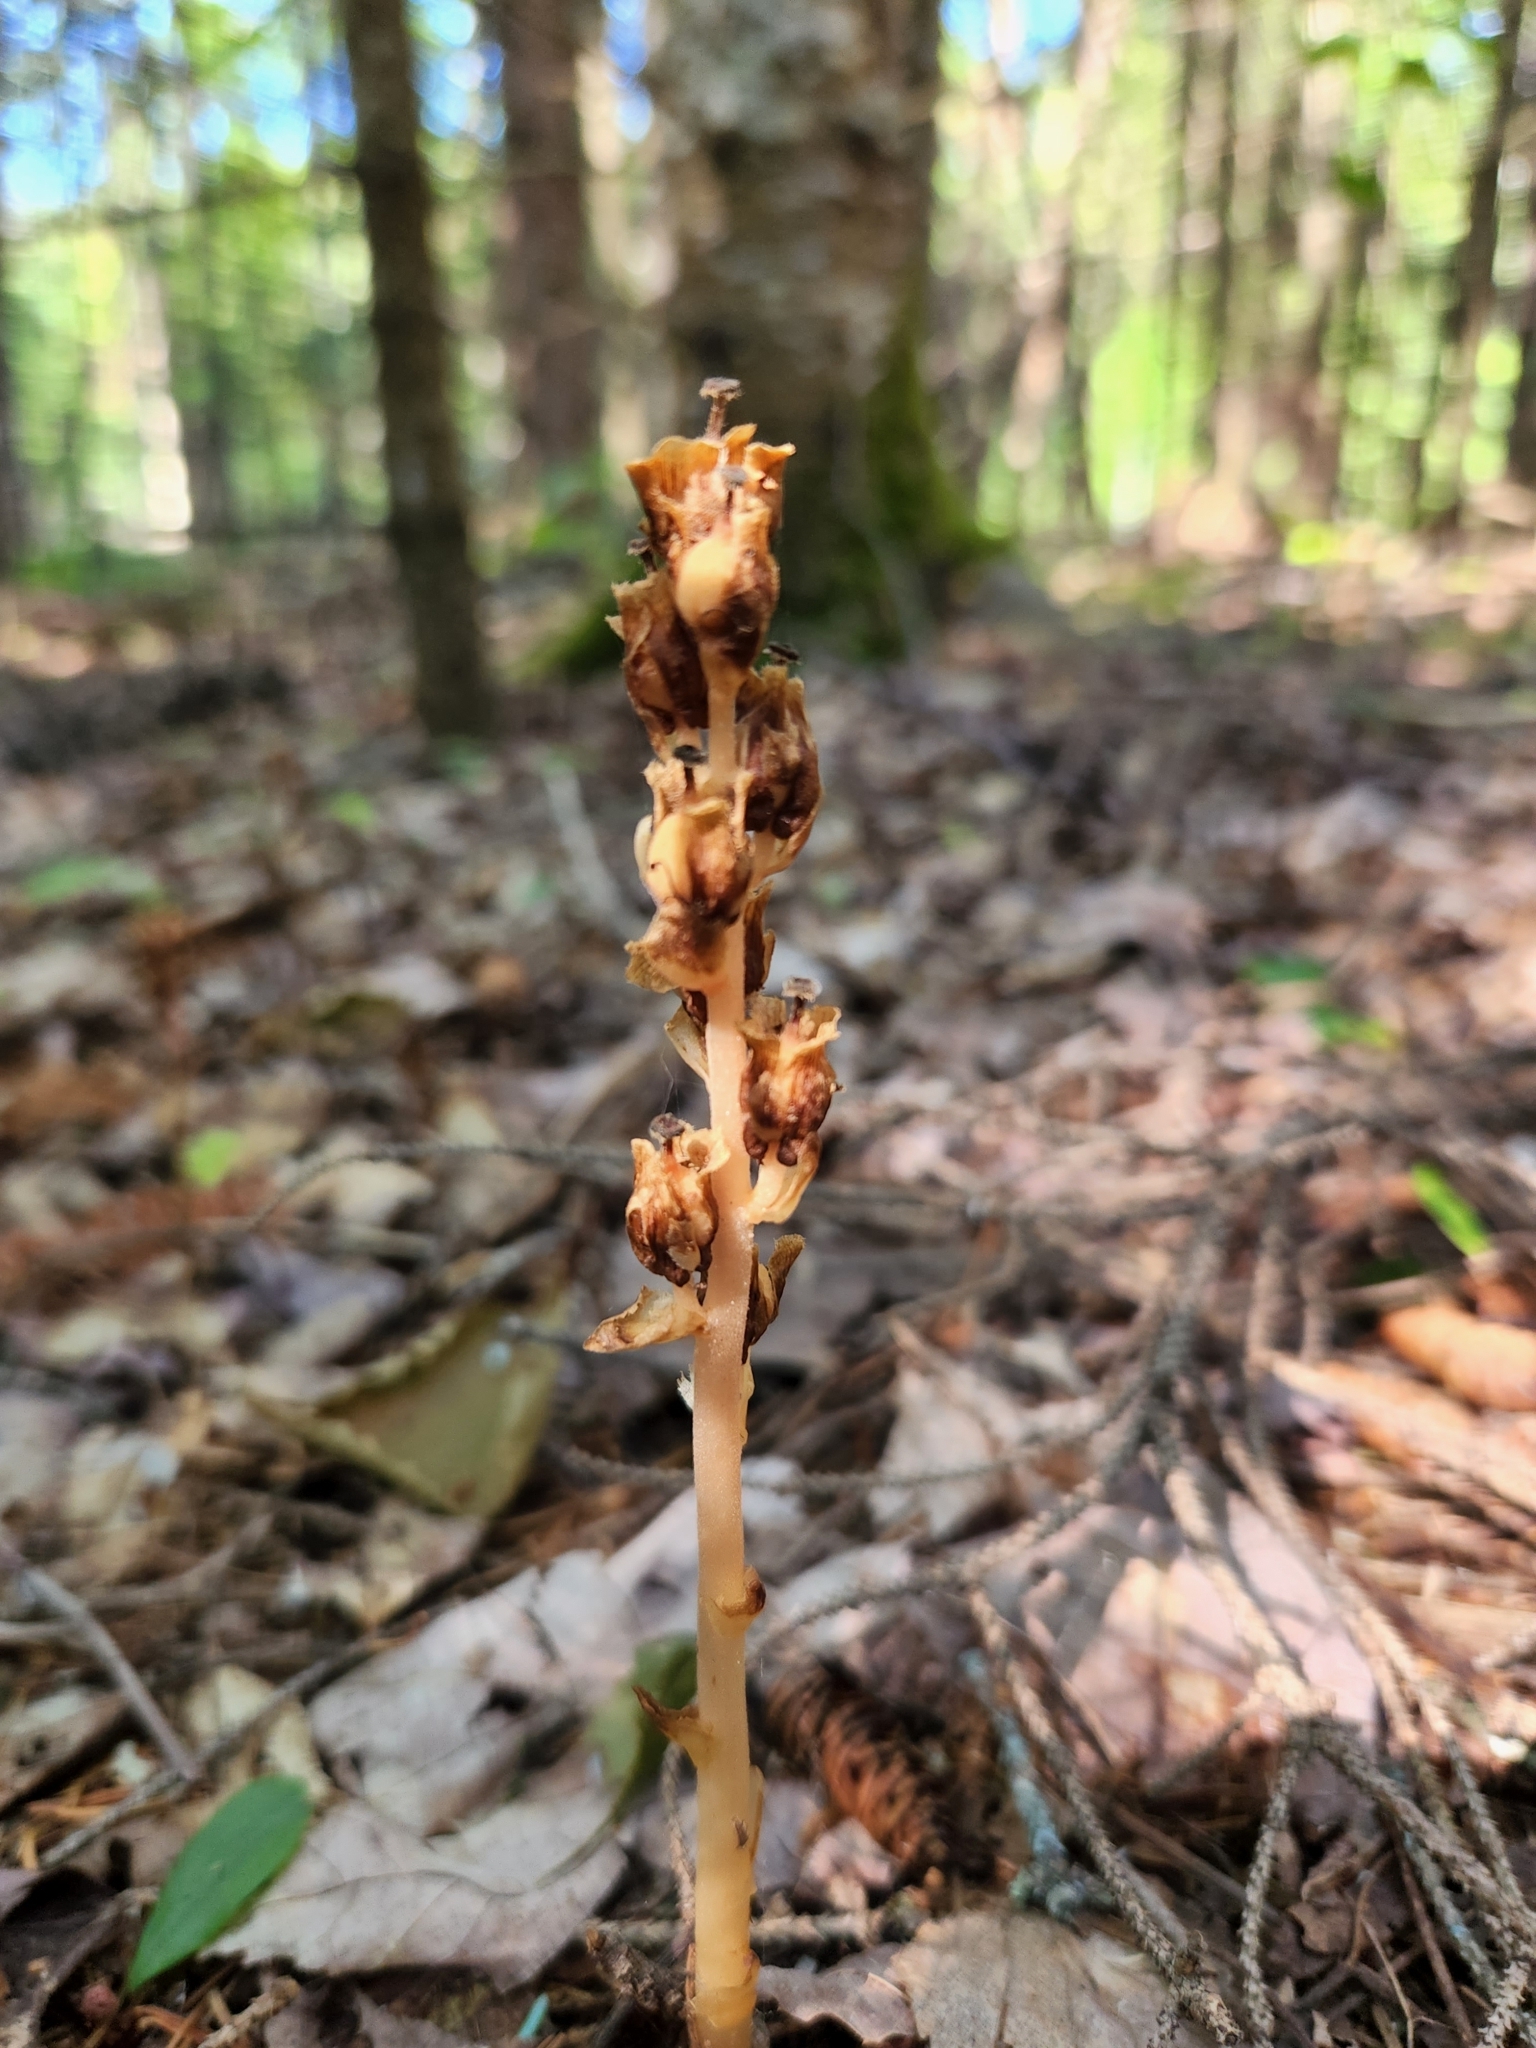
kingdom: Plantae
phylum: Tracheophyta
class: Magnoliopsida
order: Ericales
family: Ericaceae
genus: Hypopitys
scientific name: Hypopitys monotropa
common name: Yellow bird's-nest
